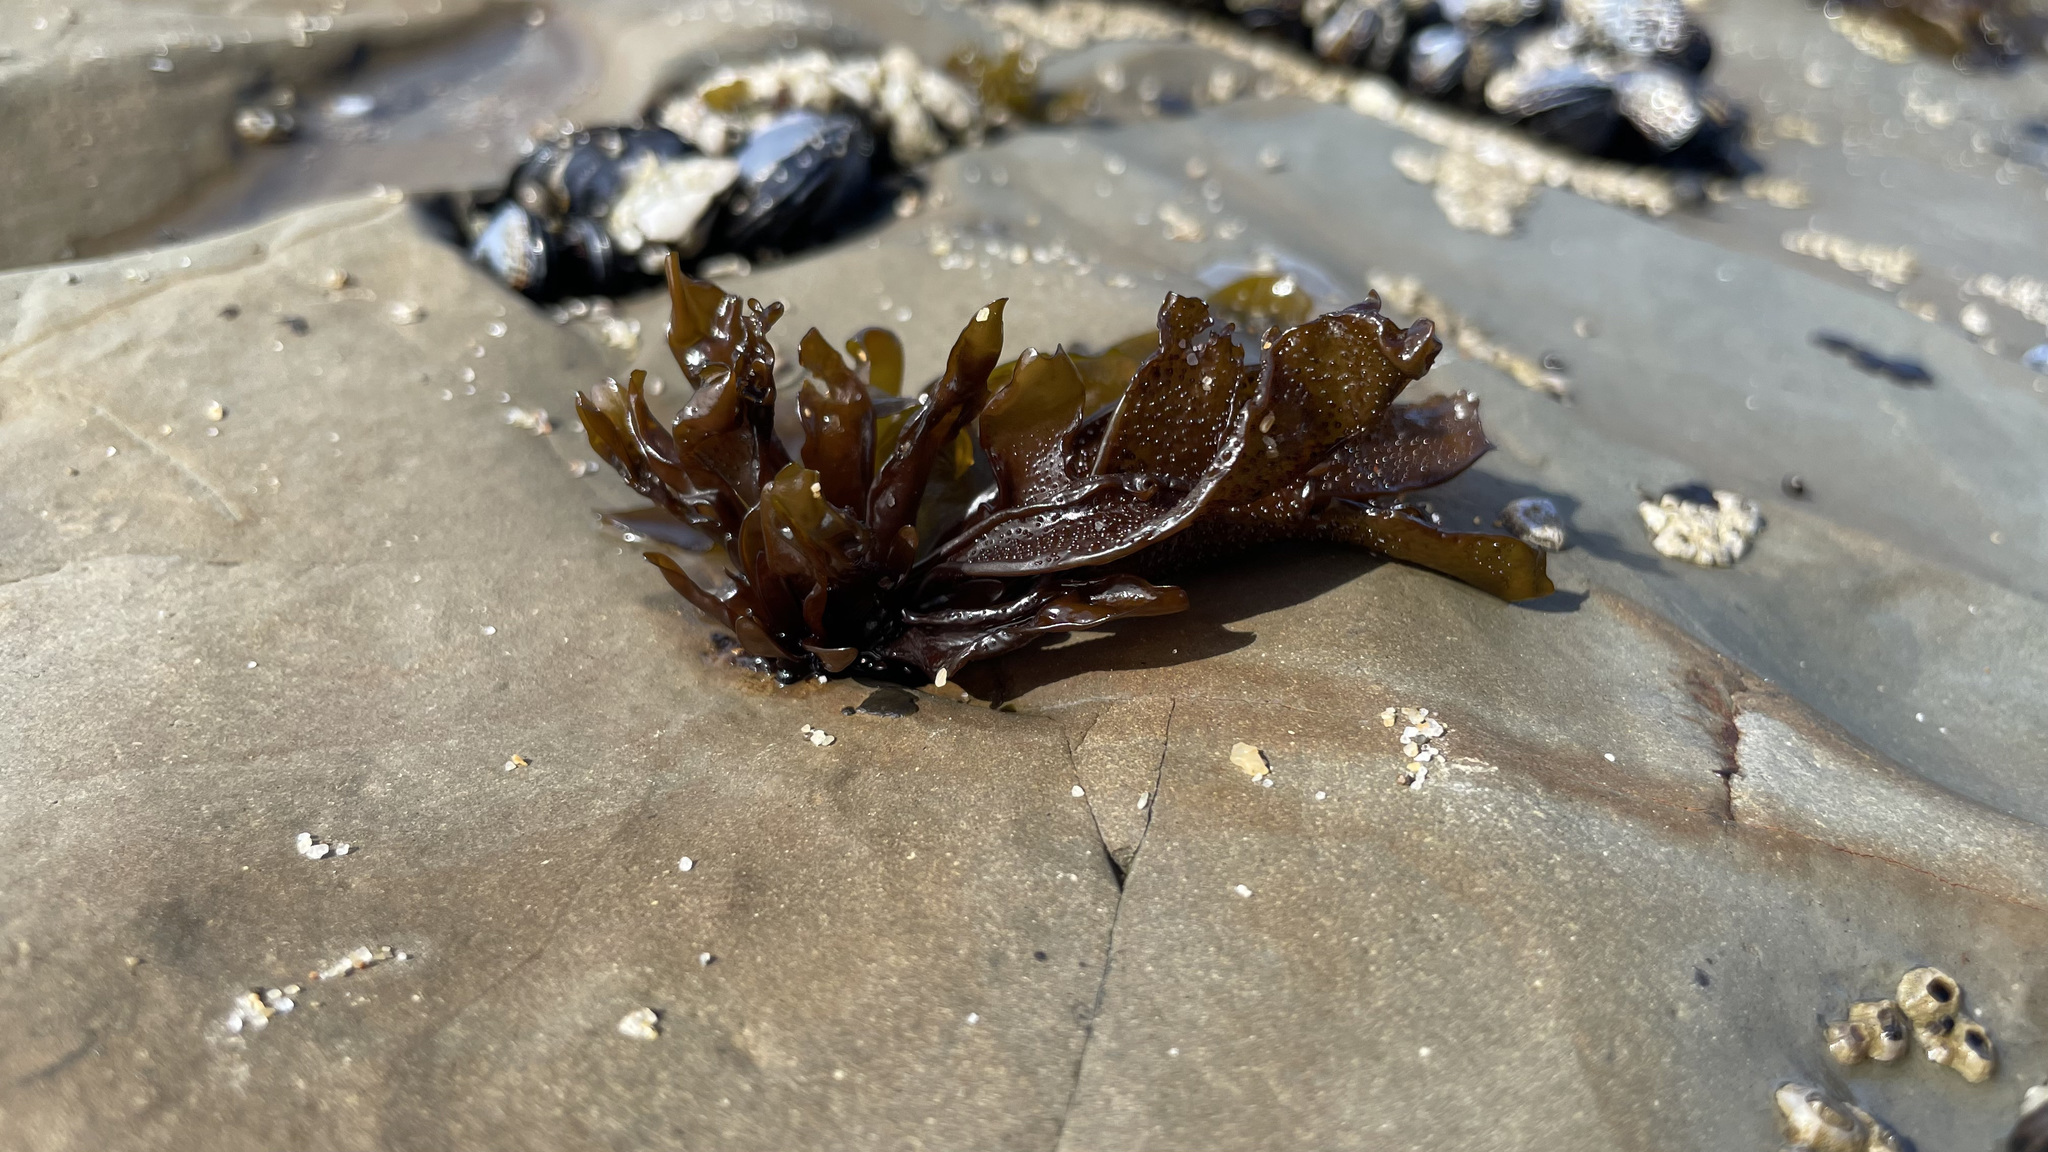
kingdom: Plantae
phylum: Rhodophyta
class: Florideophyceae
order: Gigartinales
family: Phyllophoraceae
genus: Mastocarpus
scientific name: Mastocarpus papillatus
